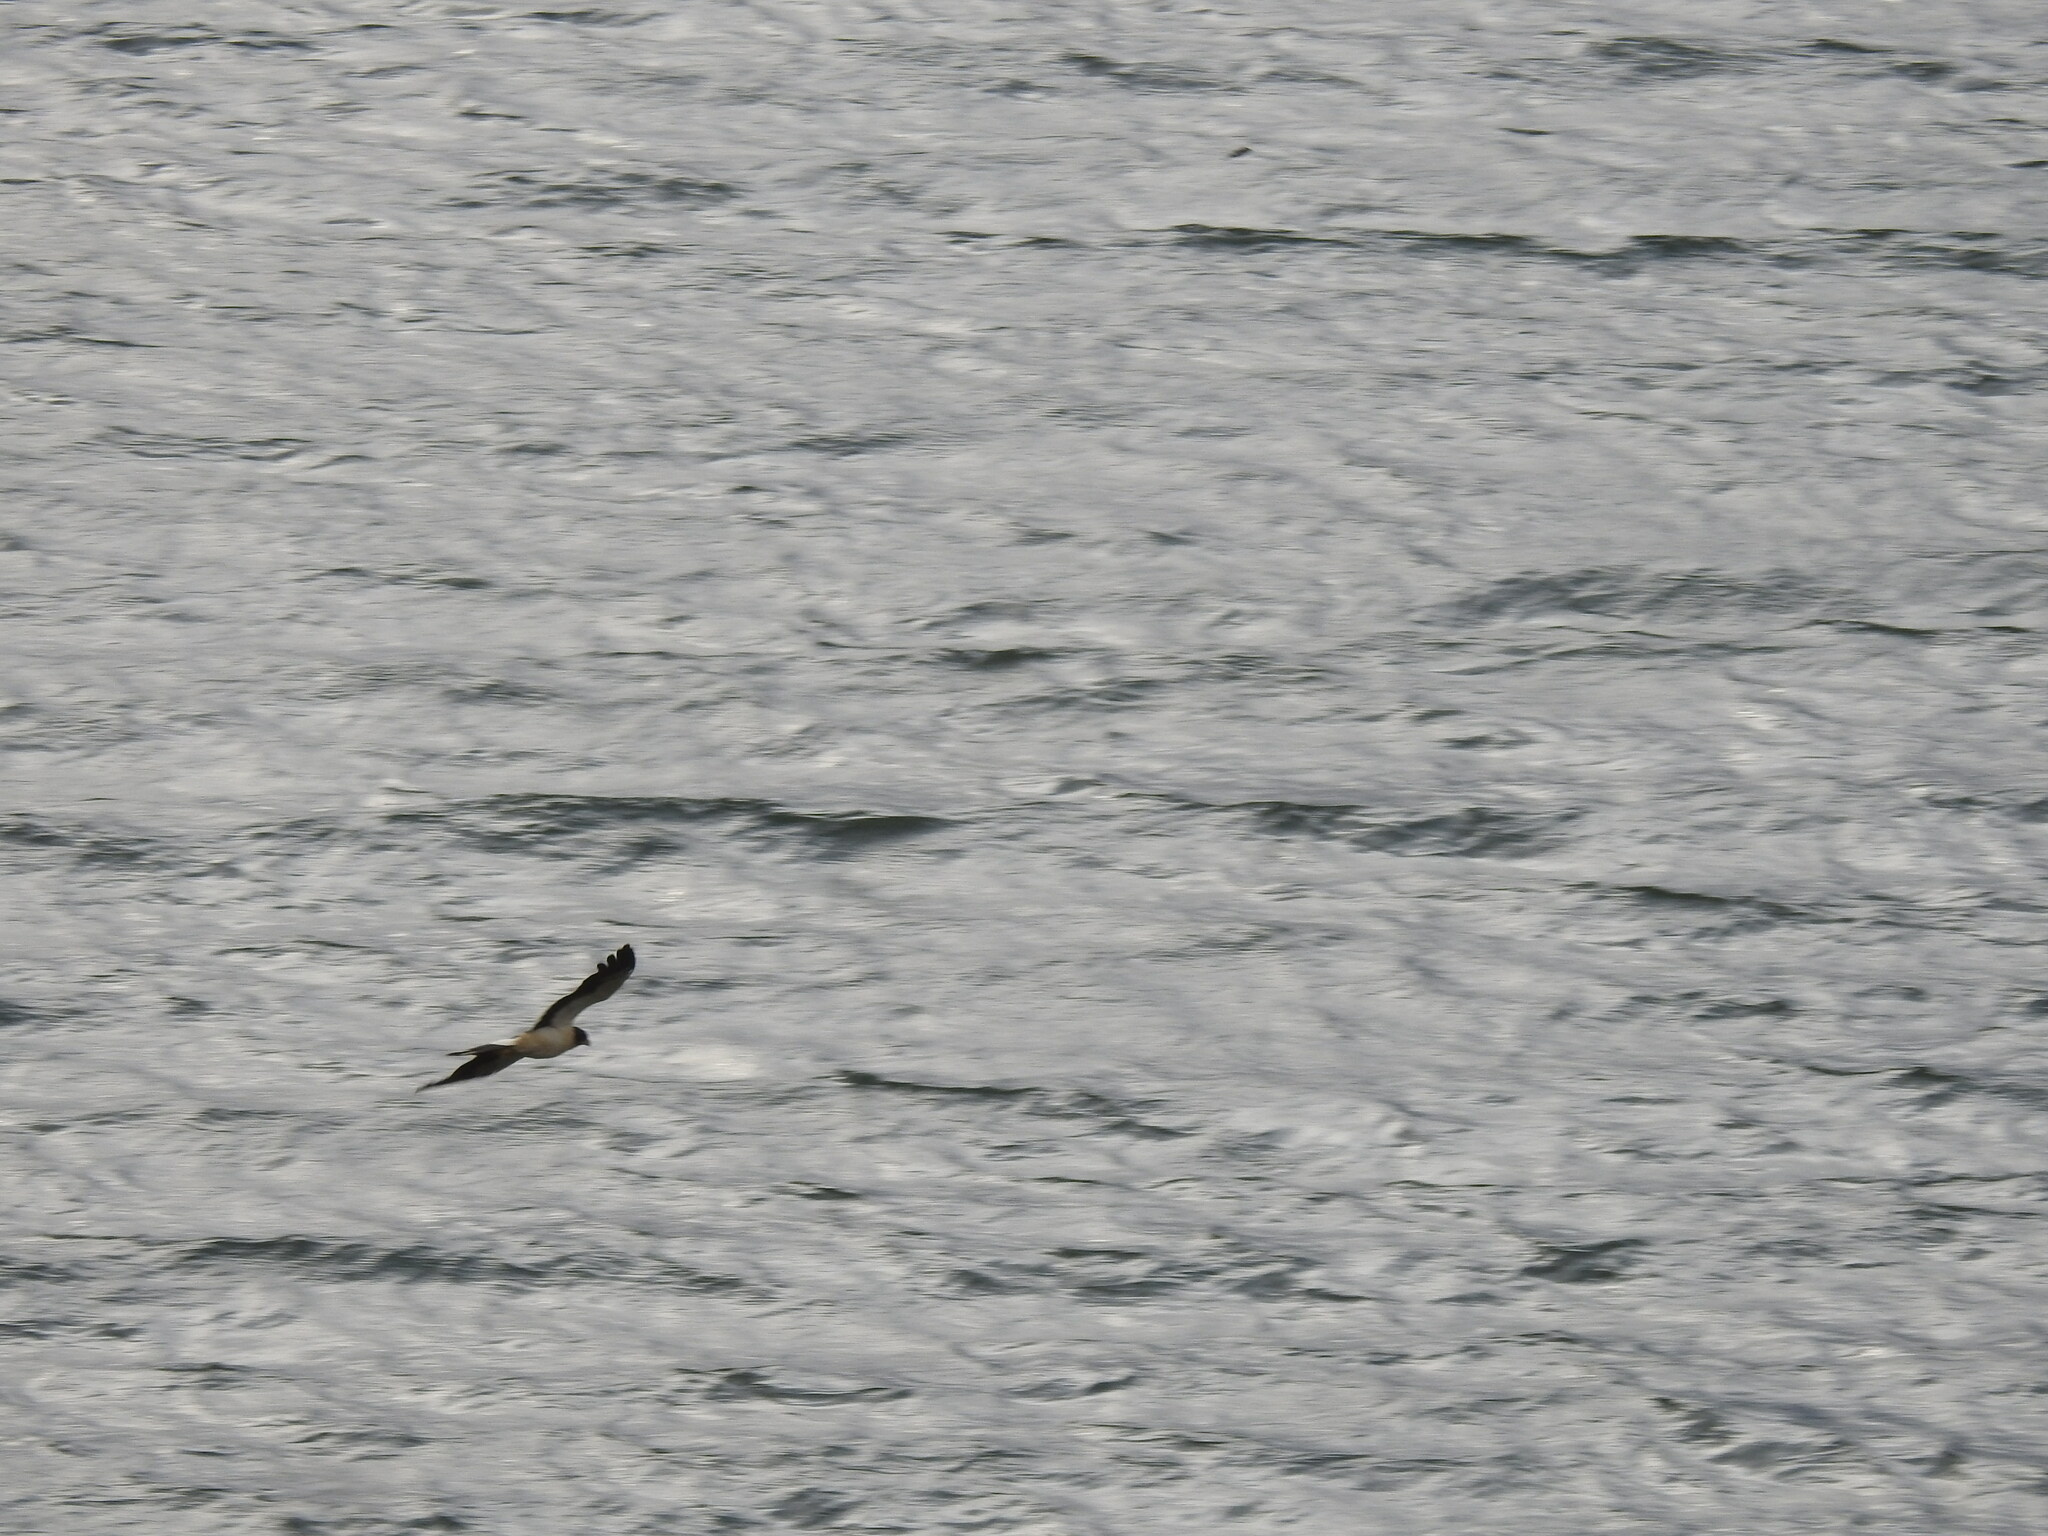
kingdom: Animalia
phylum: Chordata
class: Aves
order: Falconiformes
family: Falconidae
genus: Daptrius
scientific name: Daptrius
